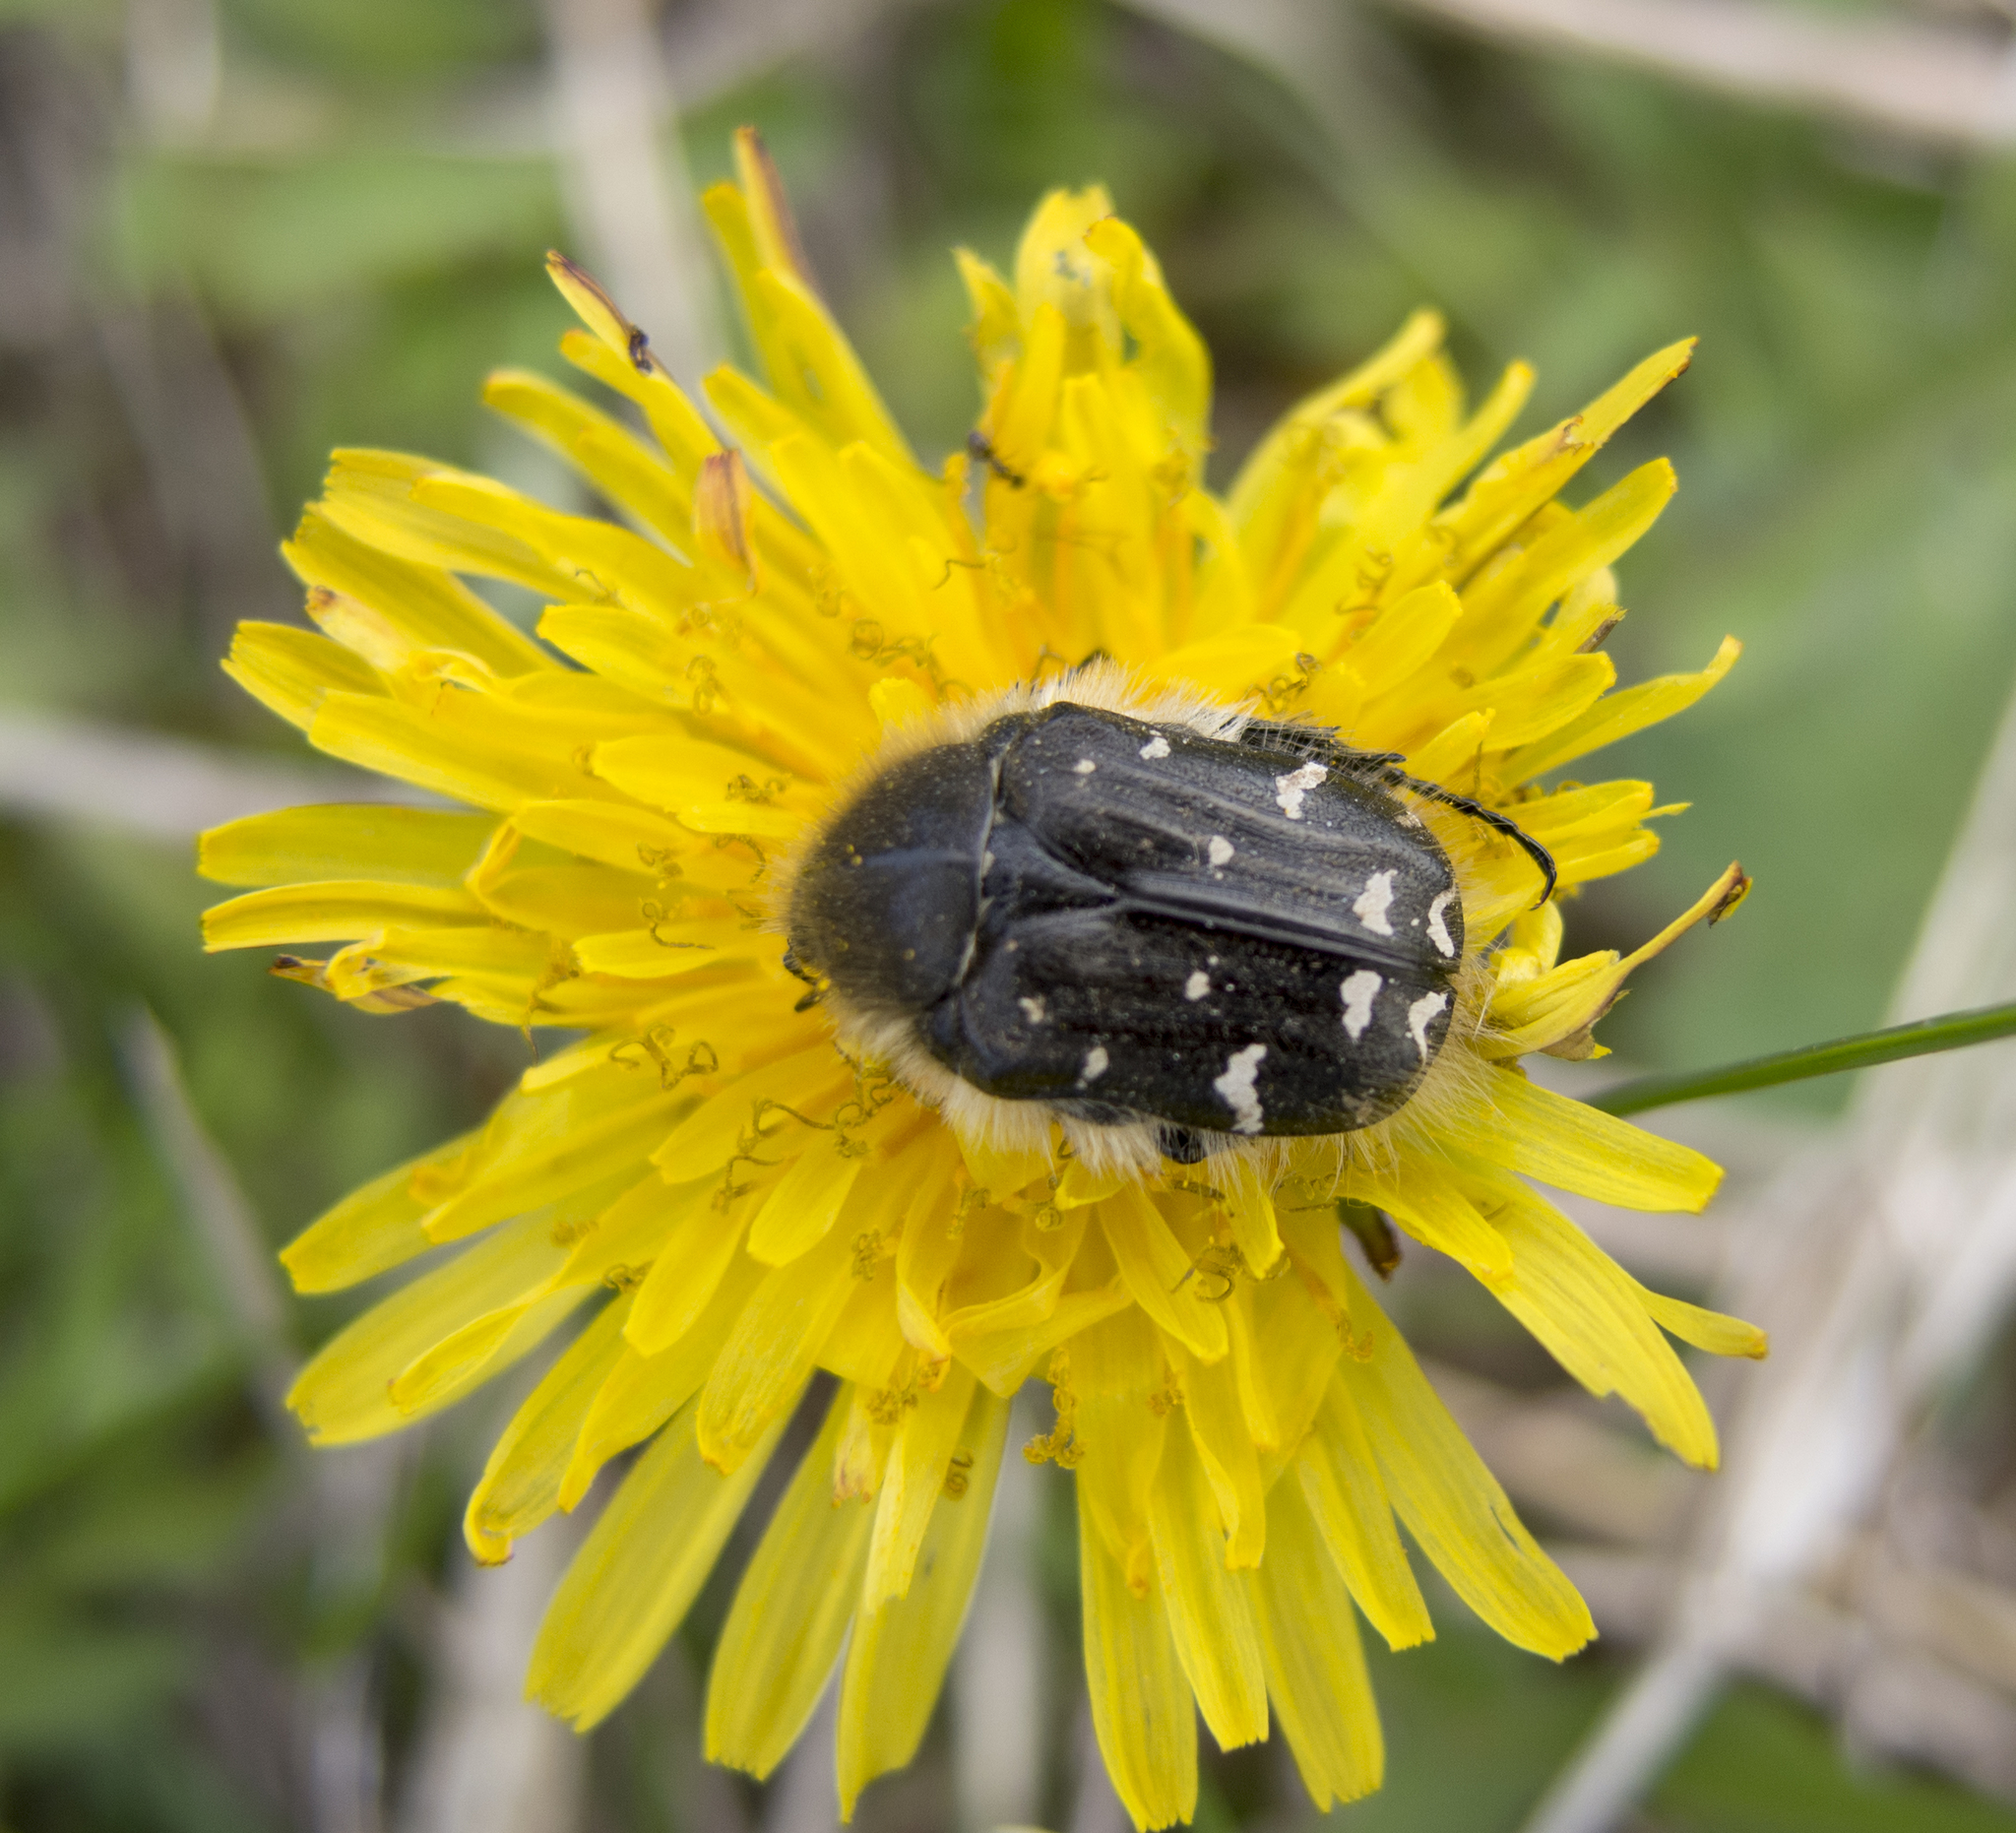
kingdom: Animalia
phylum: Arthropoda
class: Insecta
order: Coleoptera
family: Scarabaeidae
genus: Tropinota
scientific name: Tropinota hirta
